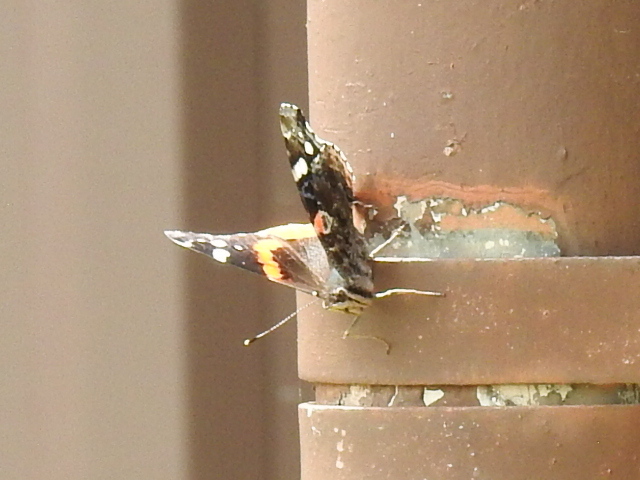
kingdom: Animalia
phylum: Arthropoda
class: Insecta
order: Lepidoptera
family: Nymphalidae
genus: Vanessa
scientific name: Vanessa atalanta
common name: Red admiral
